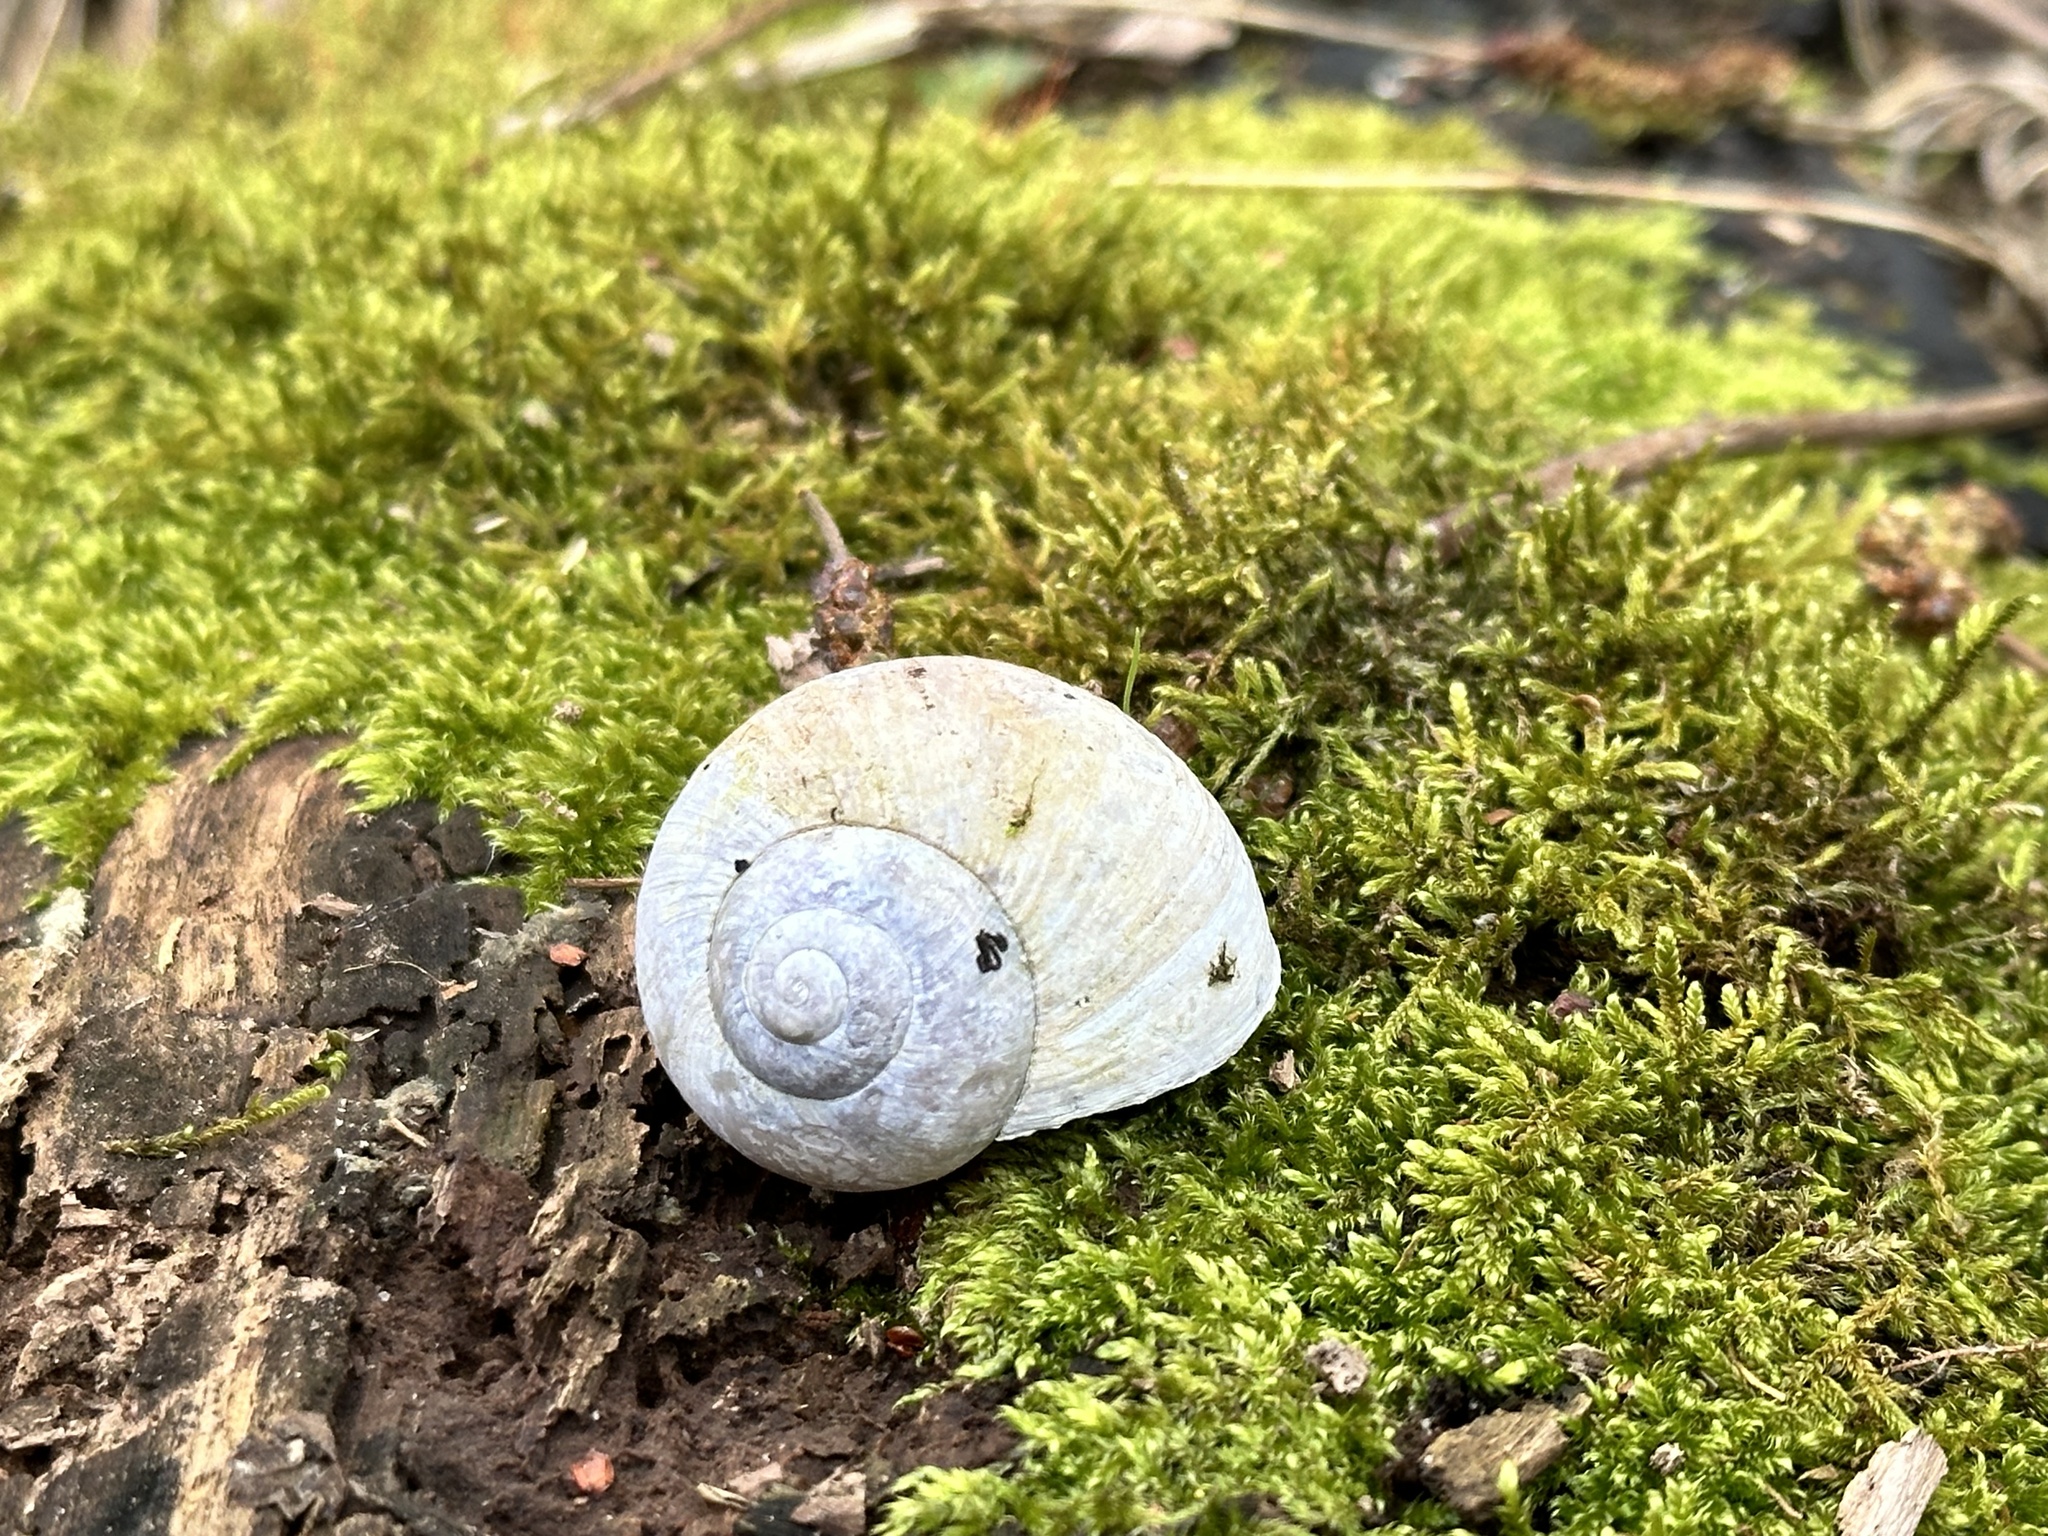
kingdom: Animalia
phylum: Mollusca
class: Gastropoda
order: Stylommatophora
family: Helicidae
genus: Helix
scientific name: Helix pomatia
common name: Roman snail
